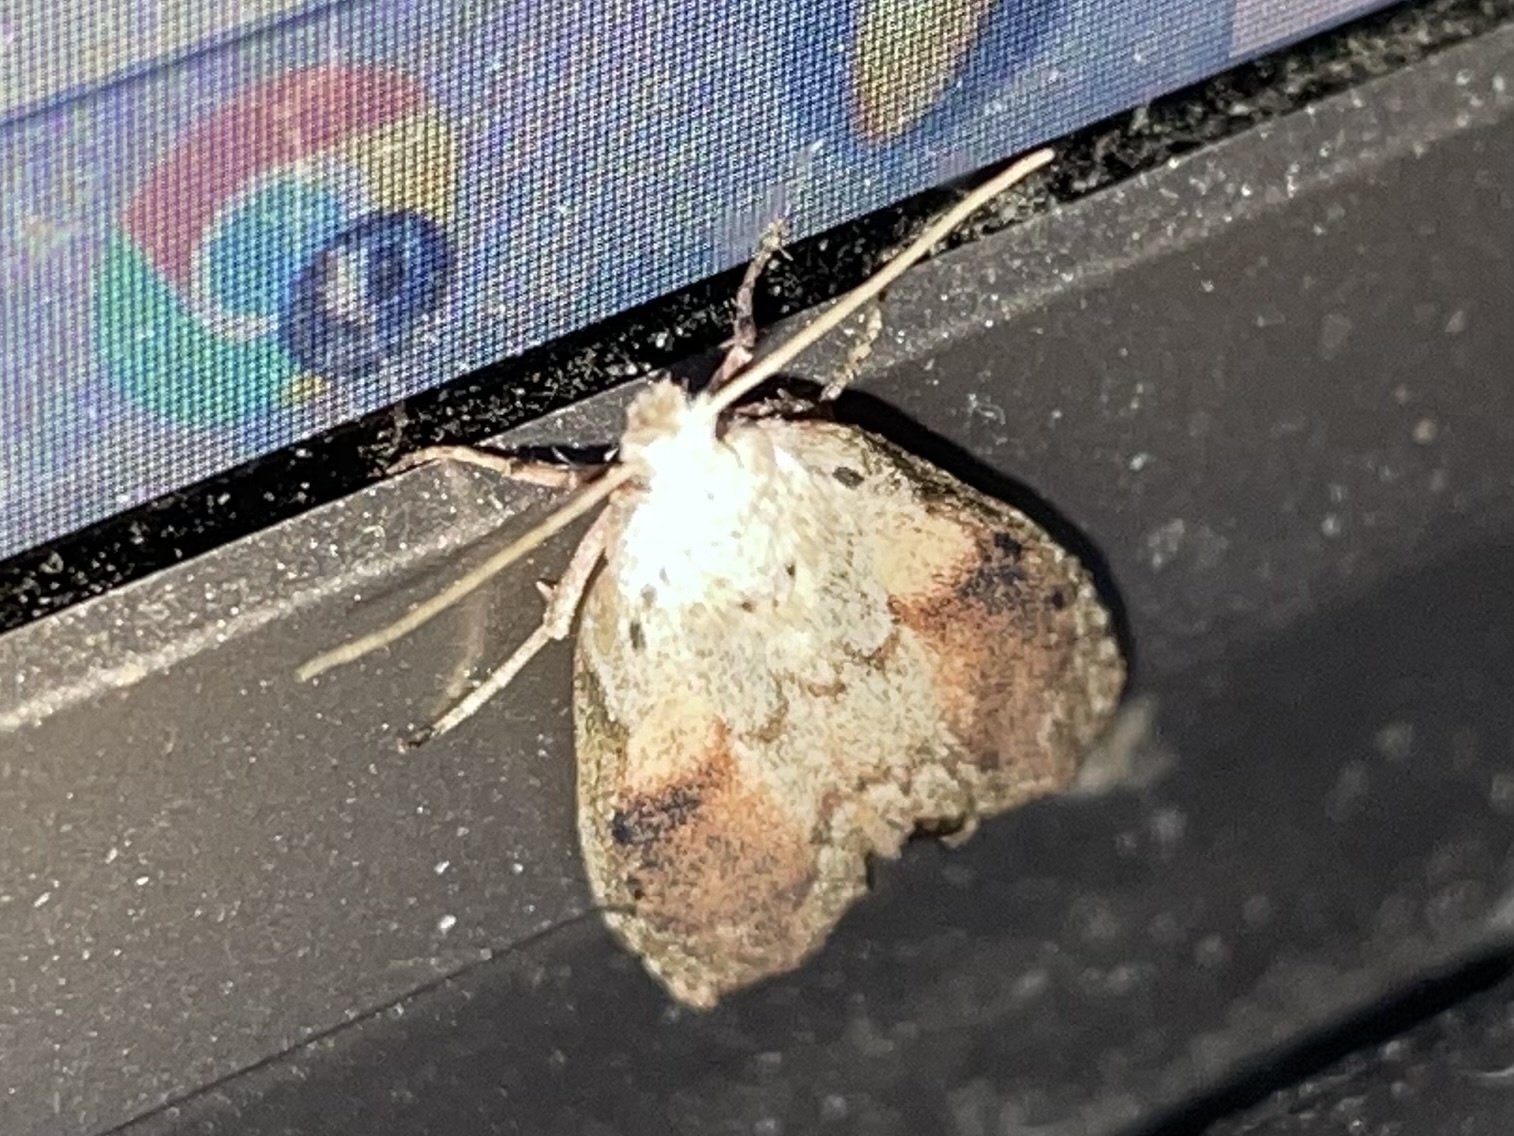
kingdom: Animalia
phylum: Arthropoda
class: Insecta
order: Lepidoptera
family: Pyralidae
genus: Aphomia
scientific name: Aphomia sociella
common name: Bee moth
